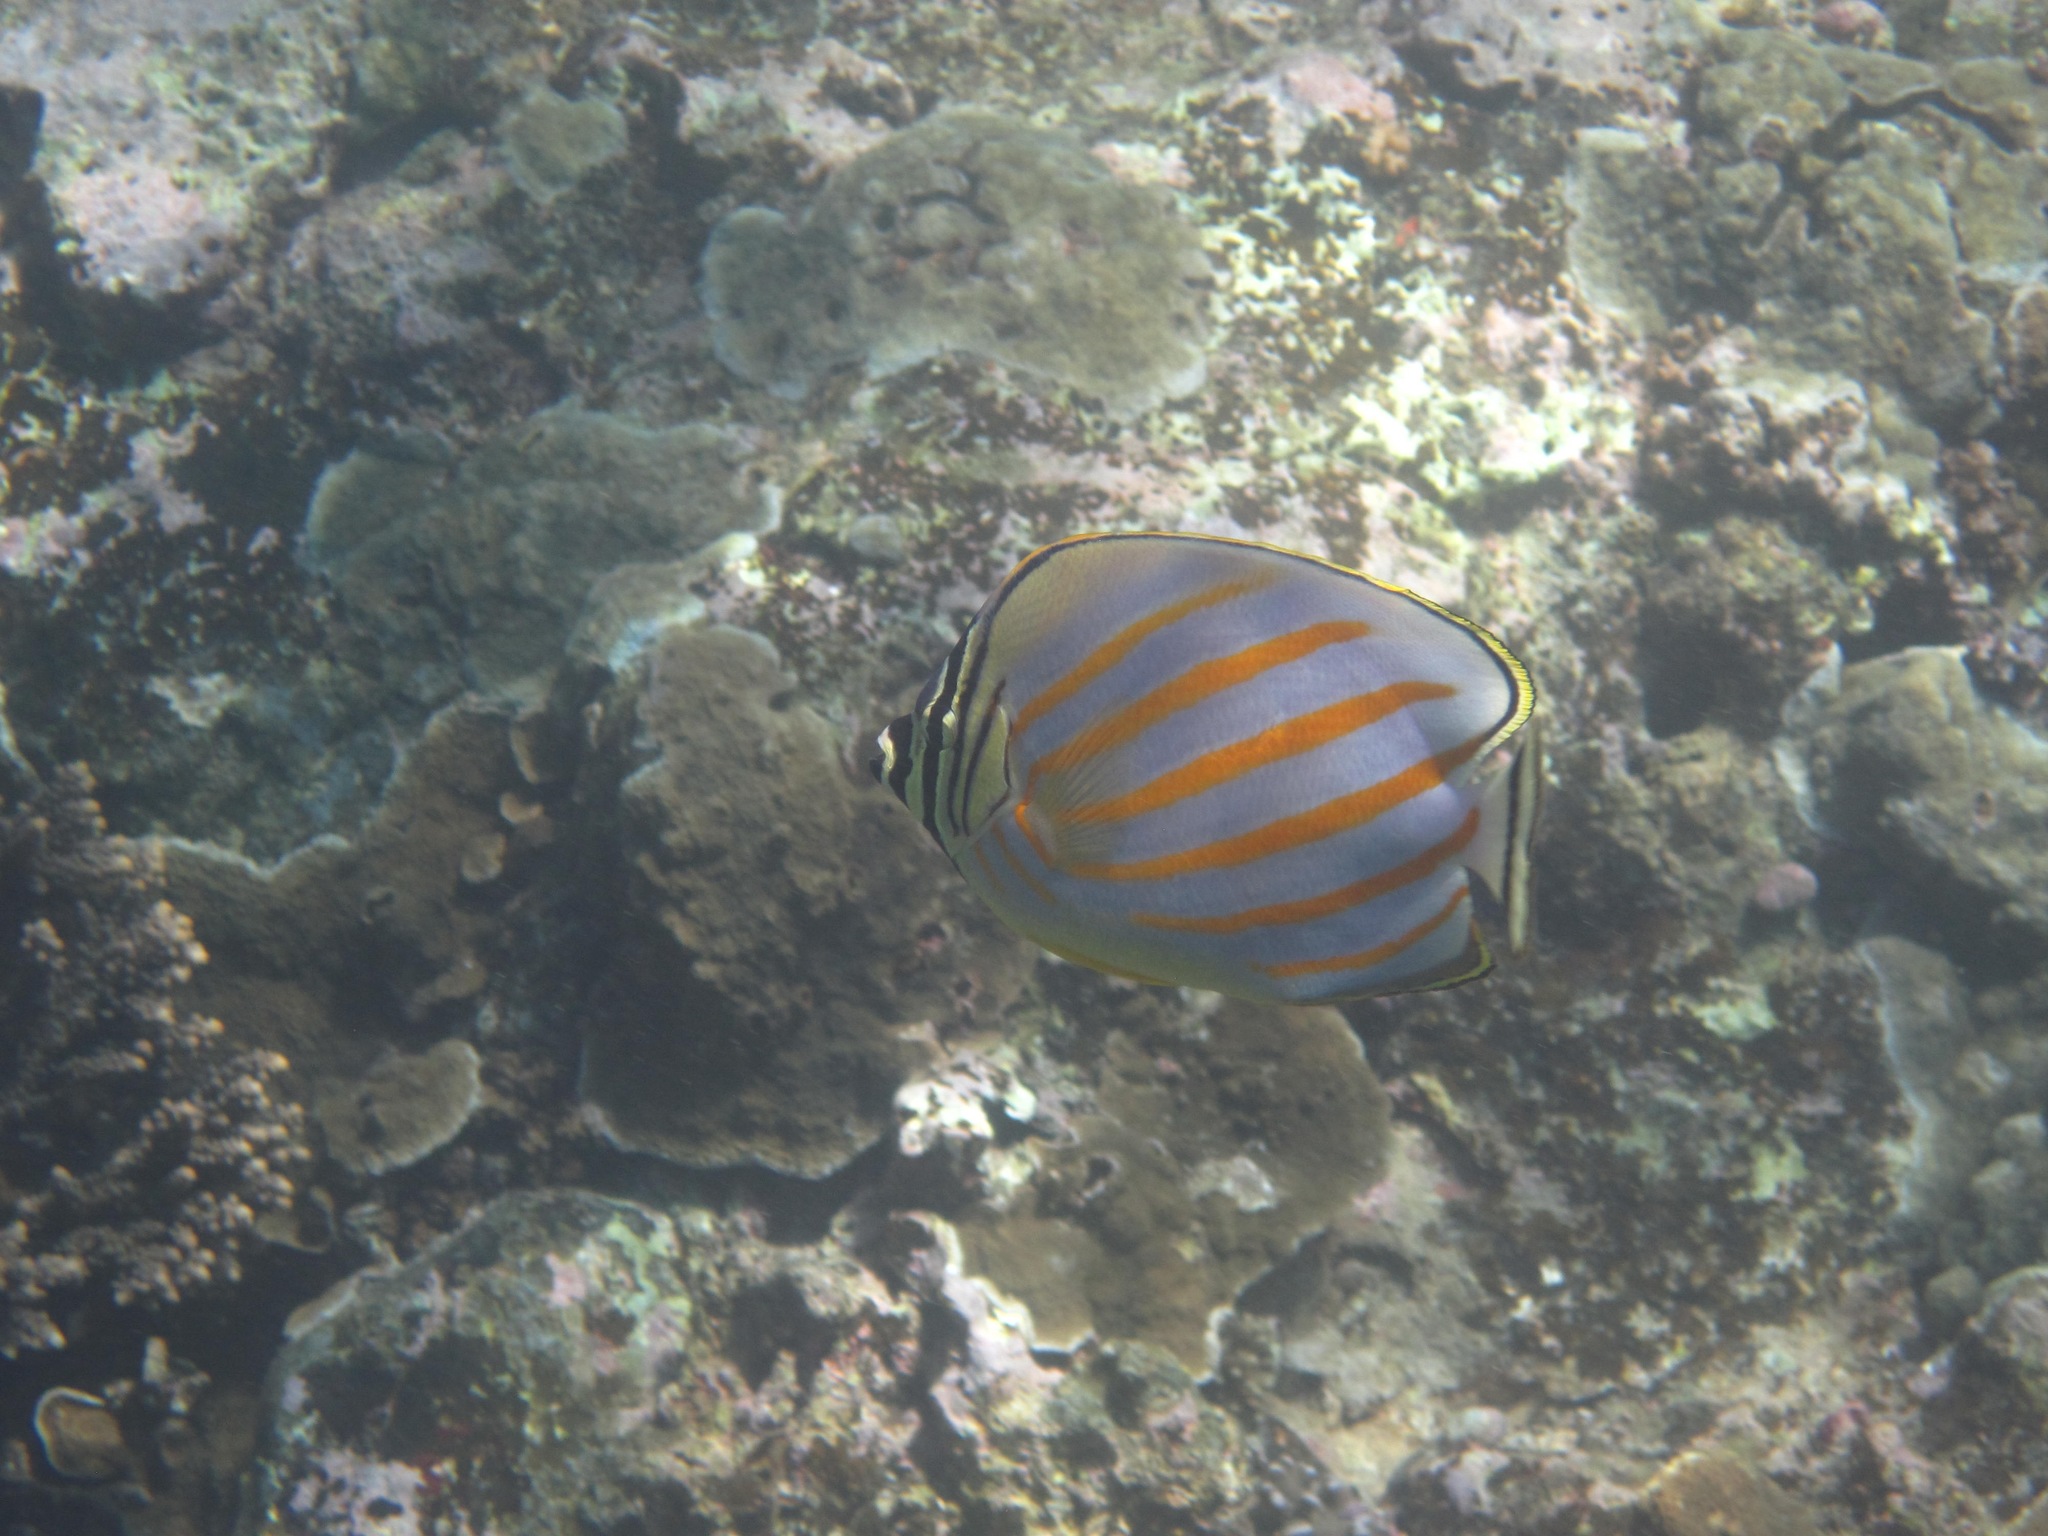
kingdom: Animalia
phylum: Chordata
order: Perciformes
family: Chaetodontidae
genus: Chaetodon
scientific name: Chaetodon ornatissimus
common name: Ornate butterflyfish
